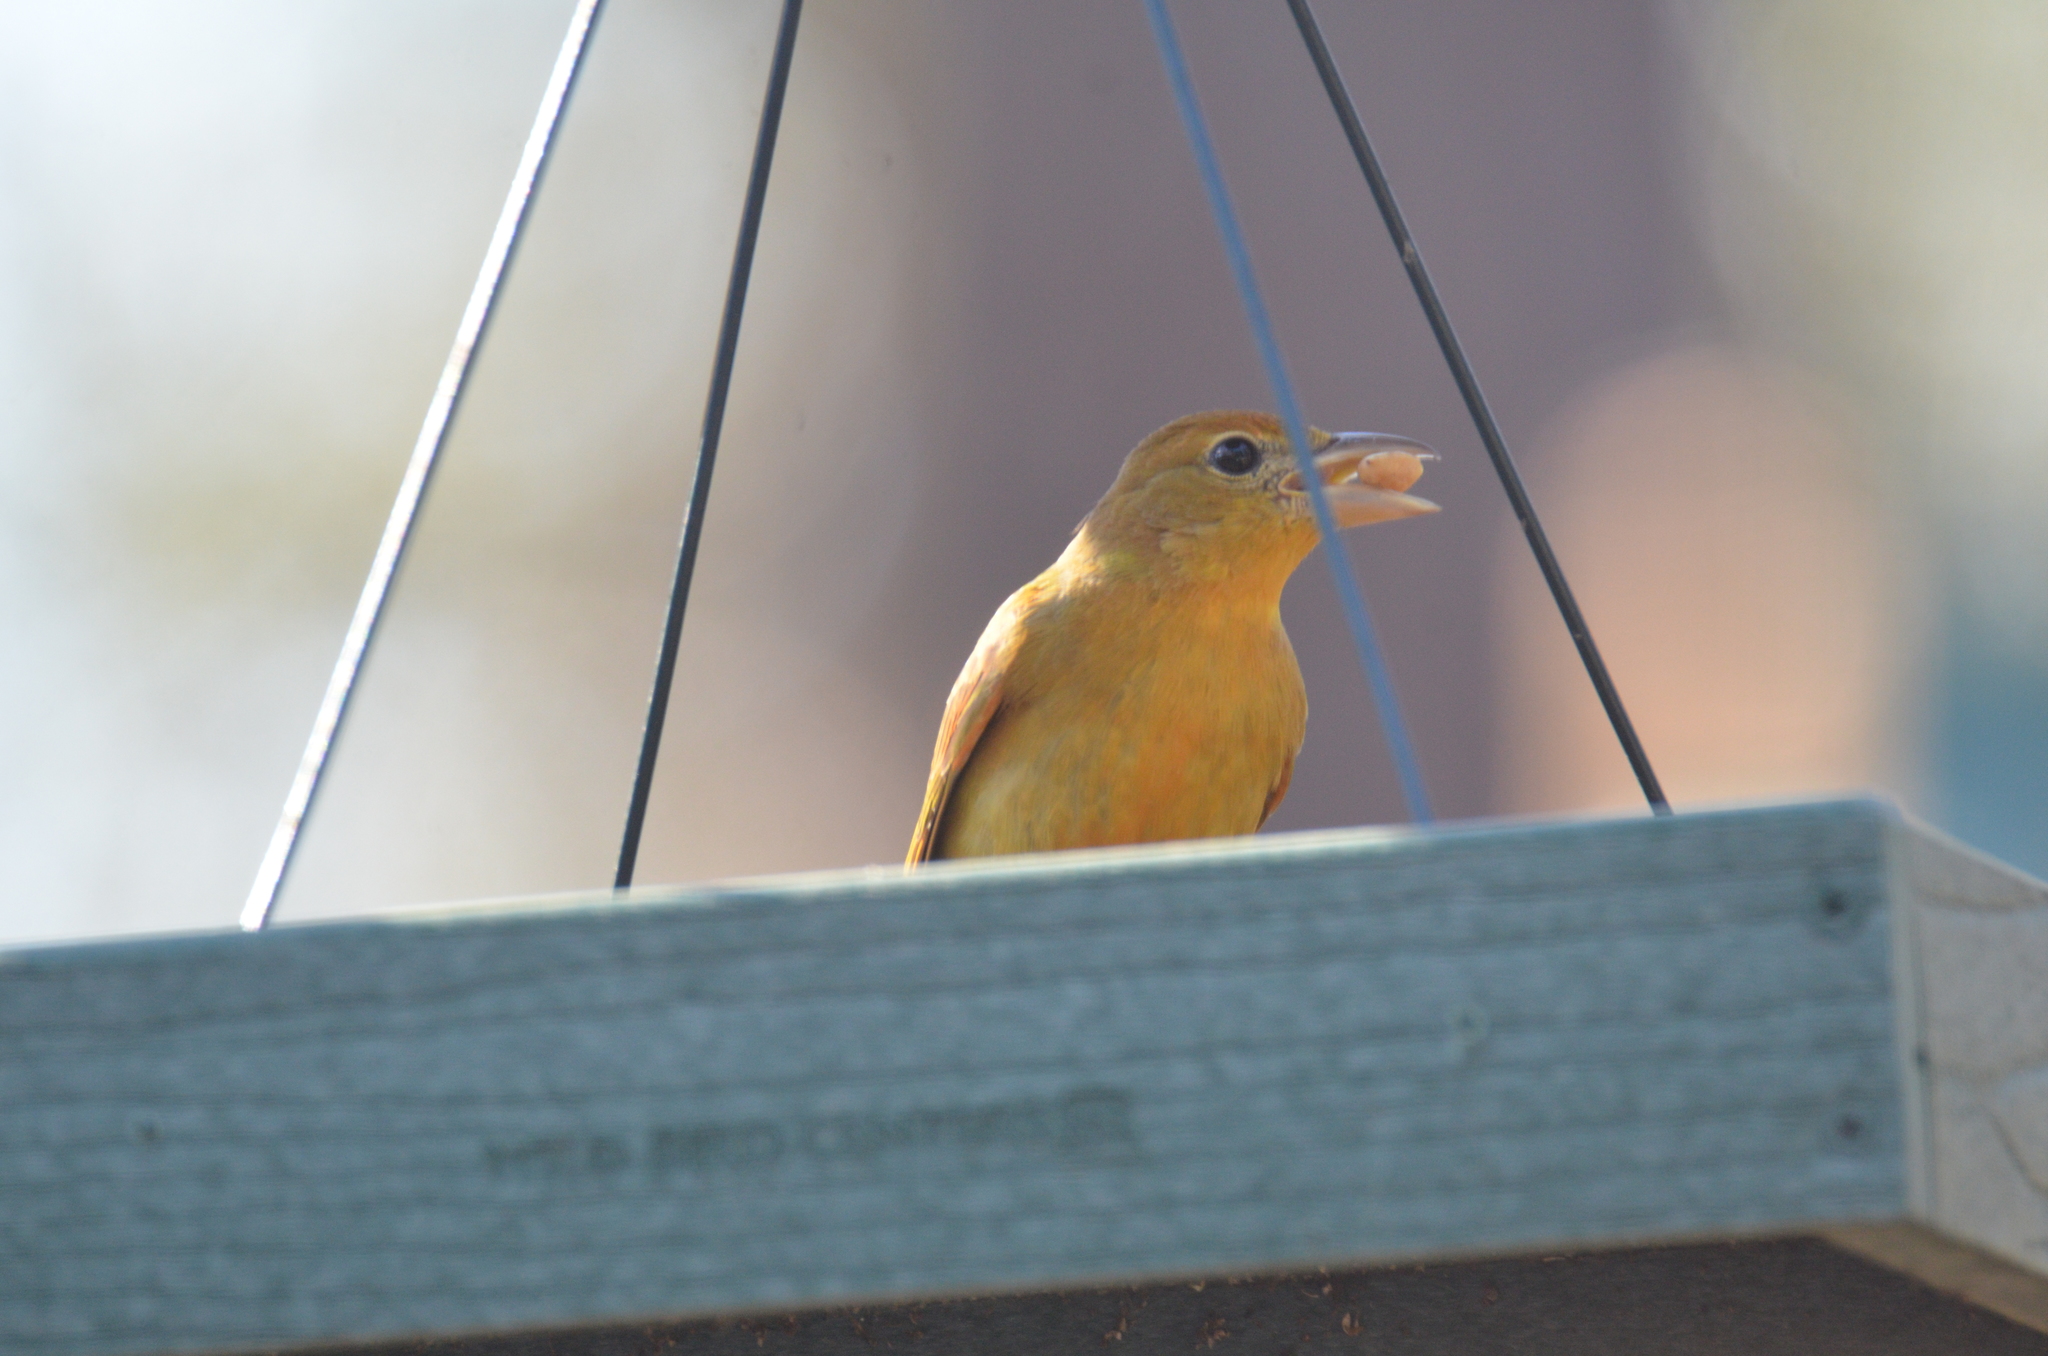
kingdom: Animalia
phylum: Chordata
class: Aves
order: Passeriformes
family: Cardinalidae
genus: Piranga
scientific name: Piranga rubra
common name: Summer tanager
